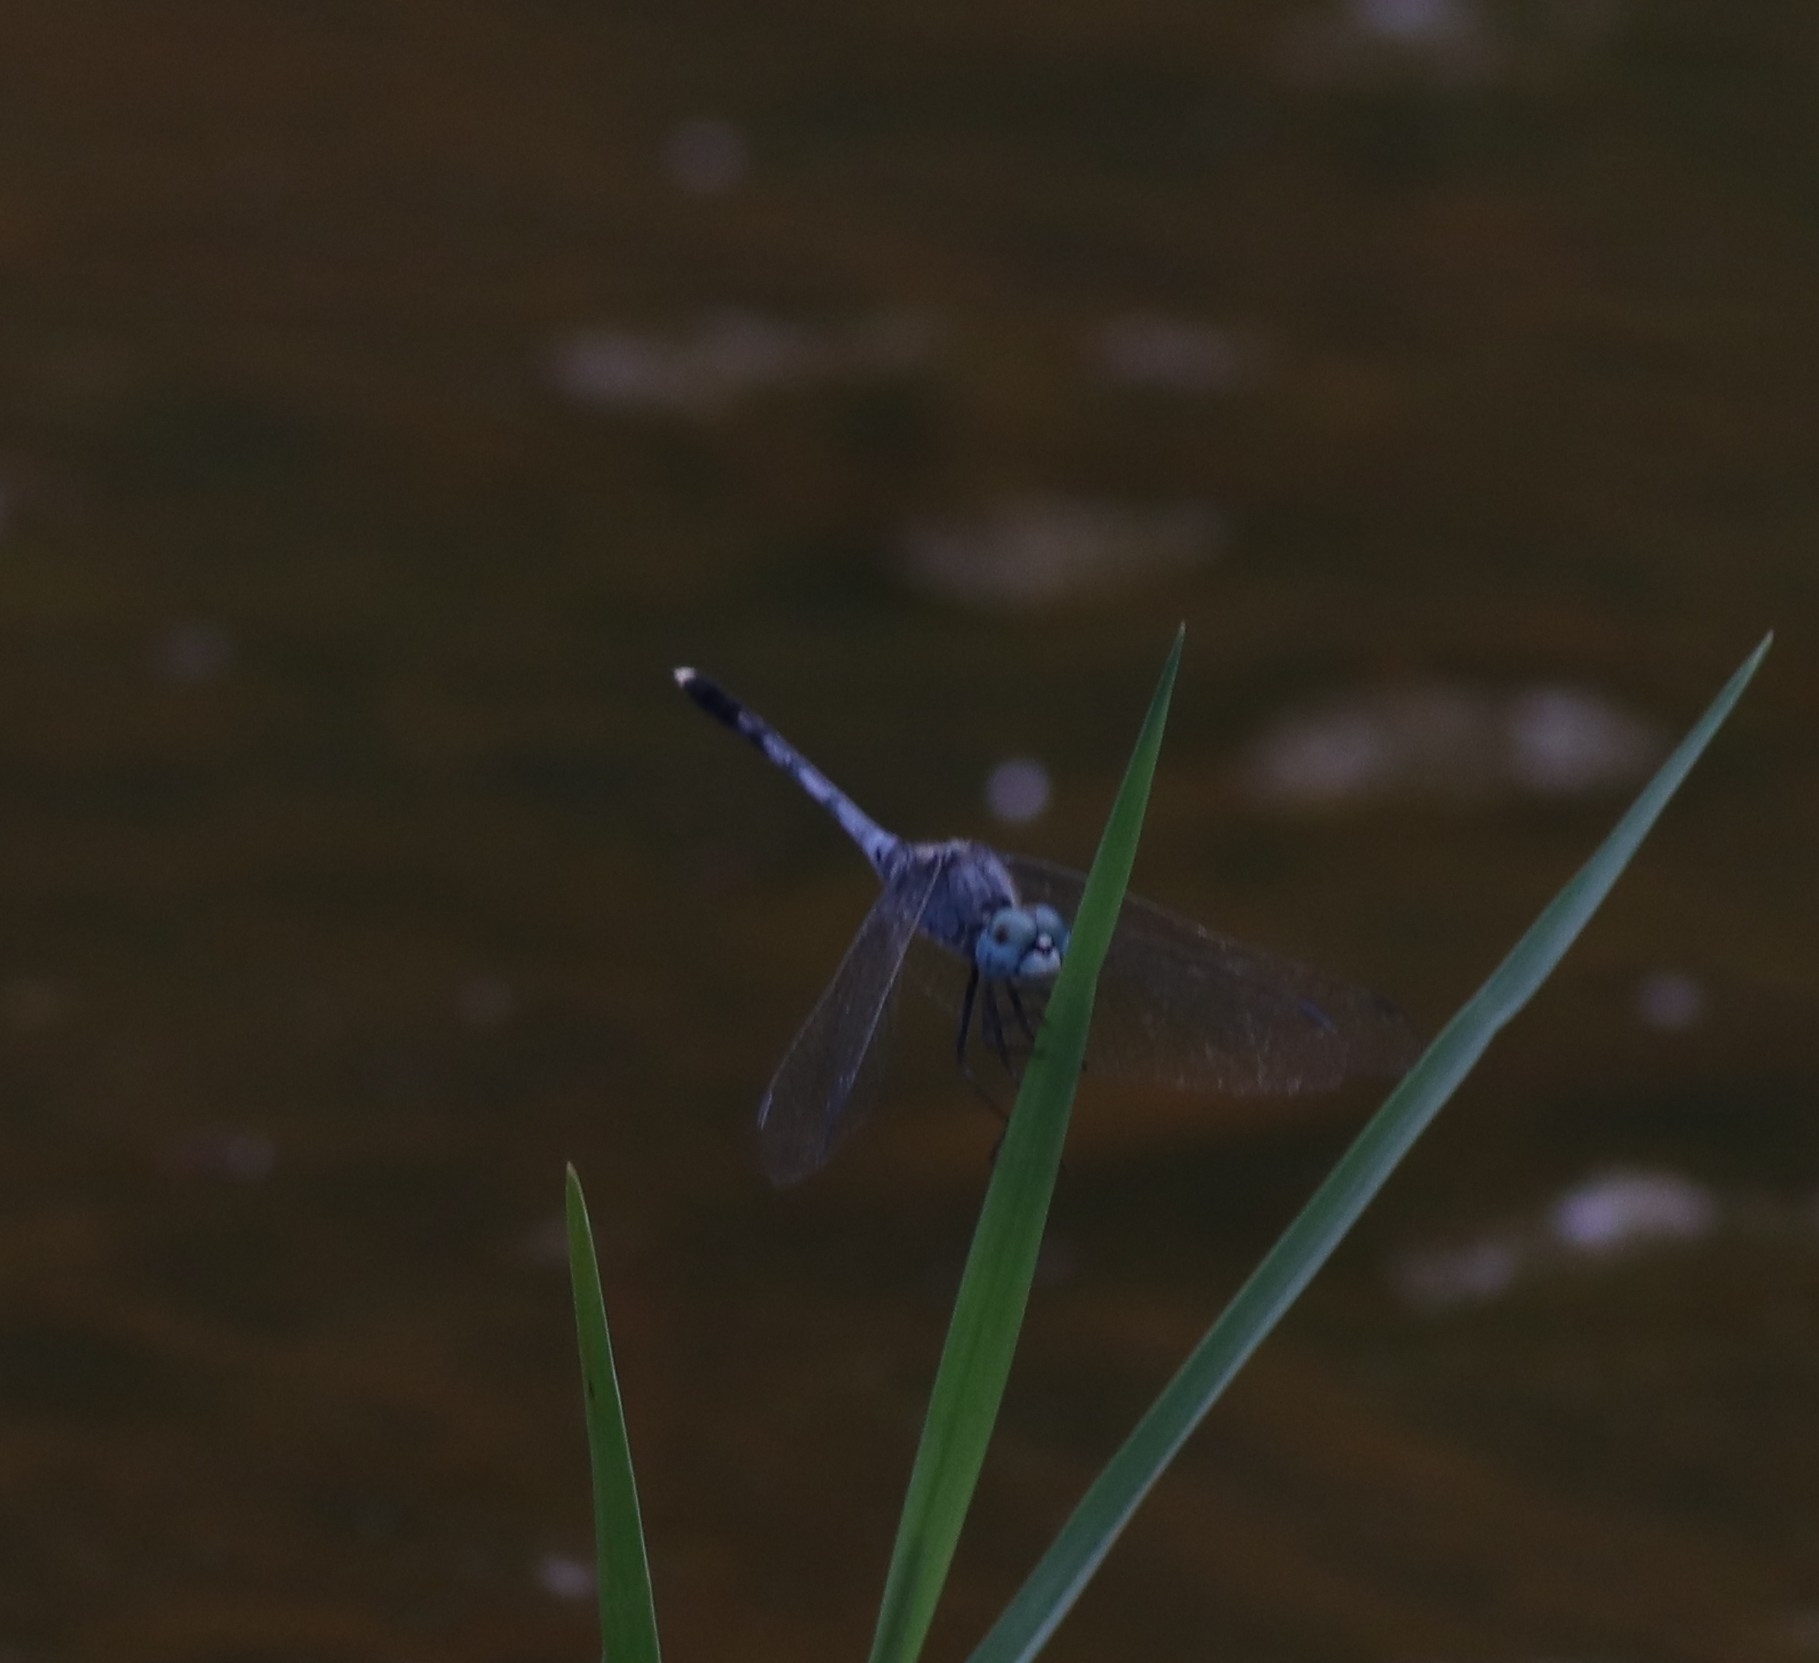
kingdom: Animalia
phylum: Arthropoda
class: Insecta
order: Odonata
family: Libellulidae
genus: Diplacodes
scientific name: Diplacodes trivialis
